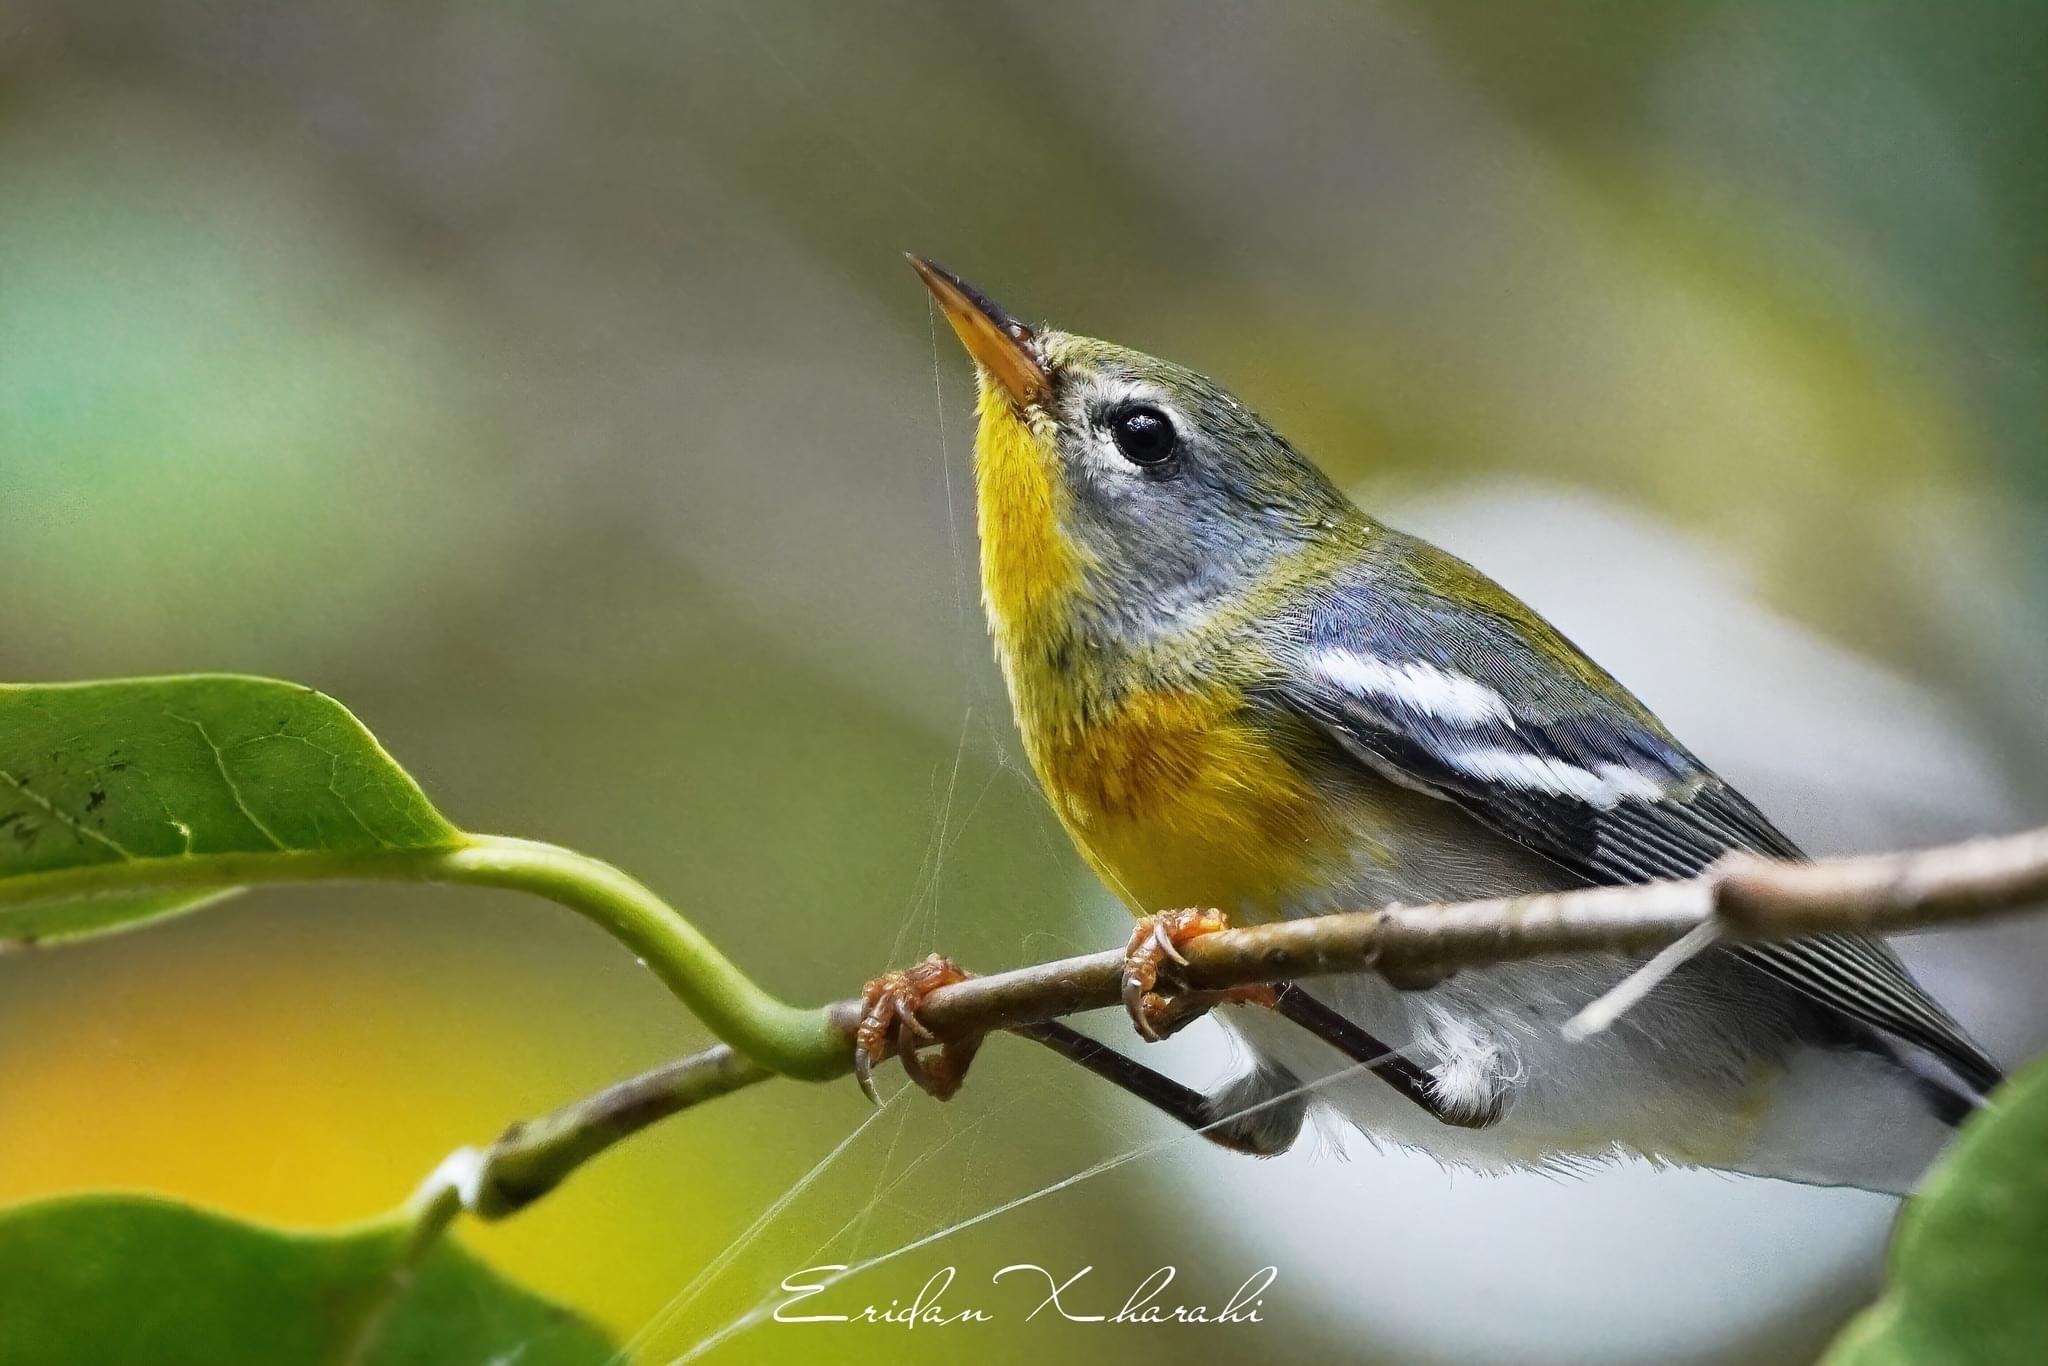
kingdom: Animalia
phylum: Chordata
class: Aves
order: Passeriformes
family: Parulidae
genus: Setophaga
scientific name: Setophaga americana
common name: Northern parula
